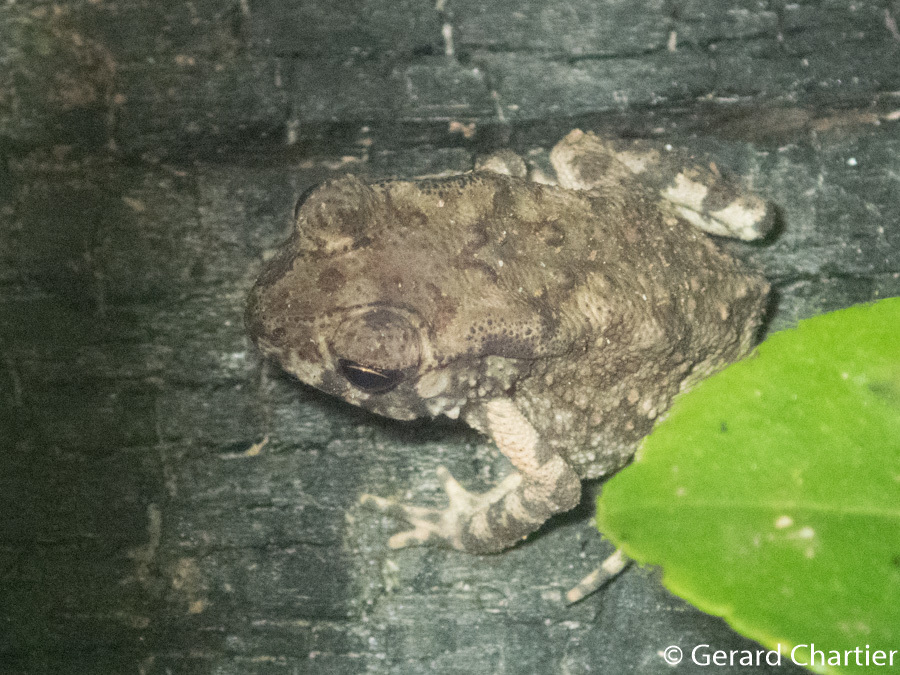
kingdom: Animalia
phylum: Chordata
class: Amphibia
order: Anura
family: Bufonidae
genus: Duttaphrynus
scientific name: Duttaphrynus melanostictus
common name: Common sunda toad
